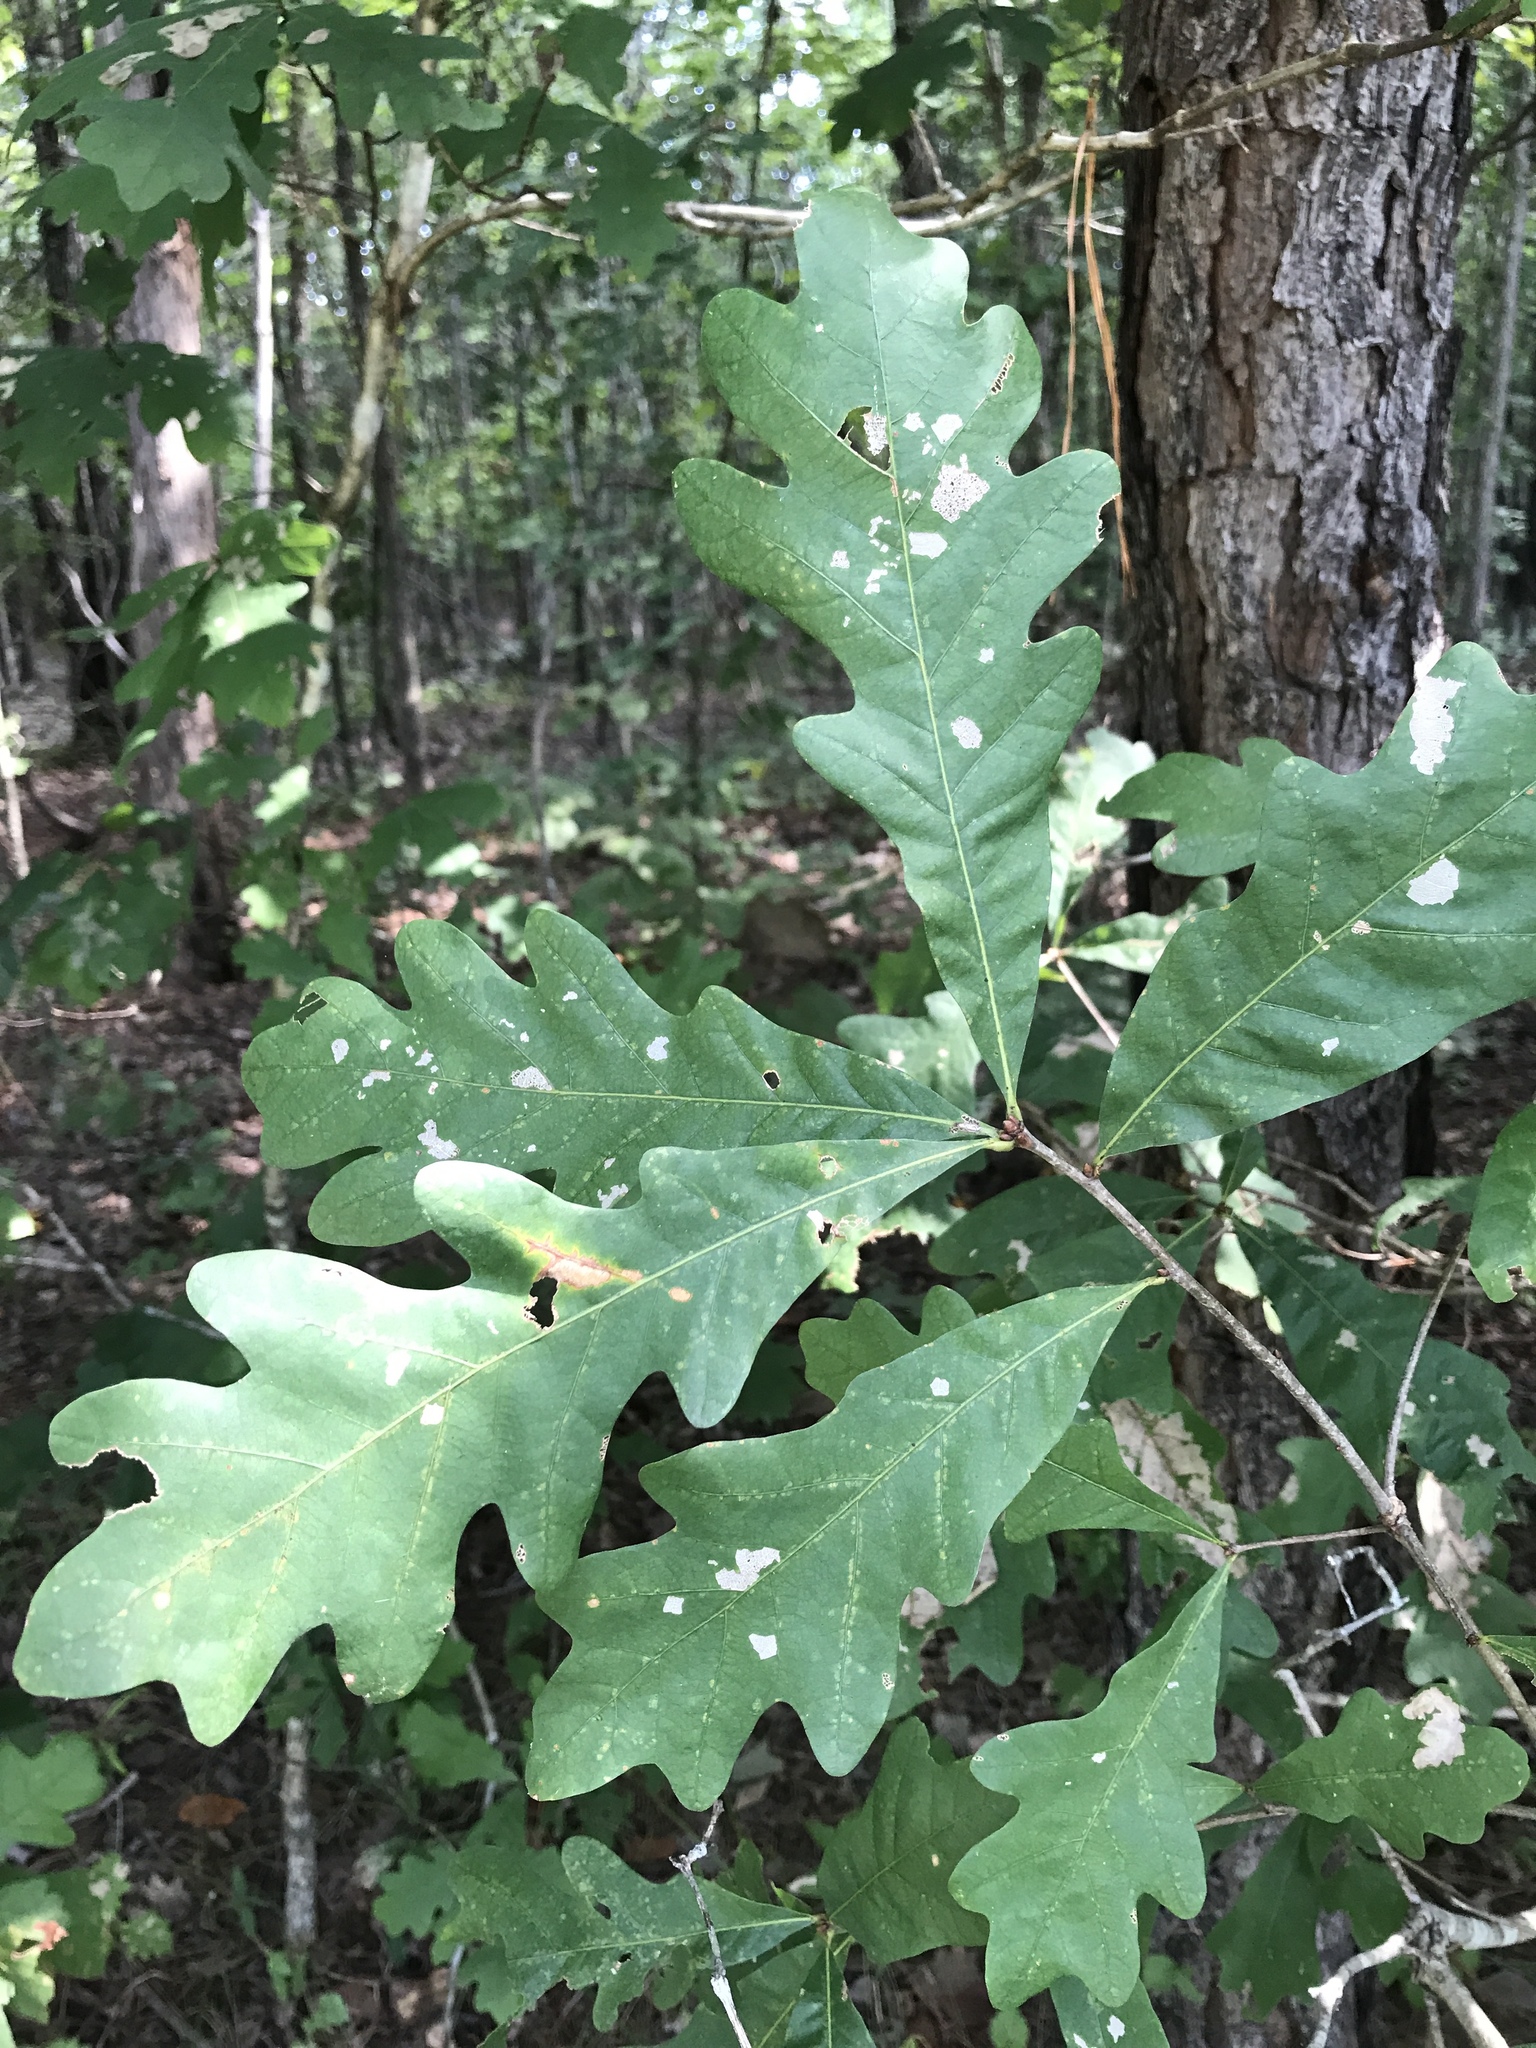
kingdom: Plantae
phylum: Tracheophyta
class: Magnoliopsida
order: Fagales
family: Fagaceae
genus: Quercus
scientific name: Quercus alba
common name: White oak
